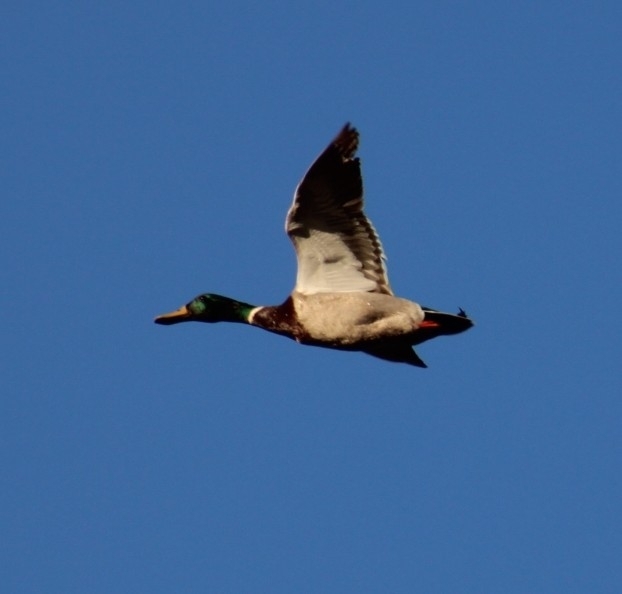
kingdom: Animalia
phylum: Chordata
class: Aves
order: Anseriformes
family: Anatidae
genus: Anas
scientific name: Anas platyrhynchos
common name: Mallard
